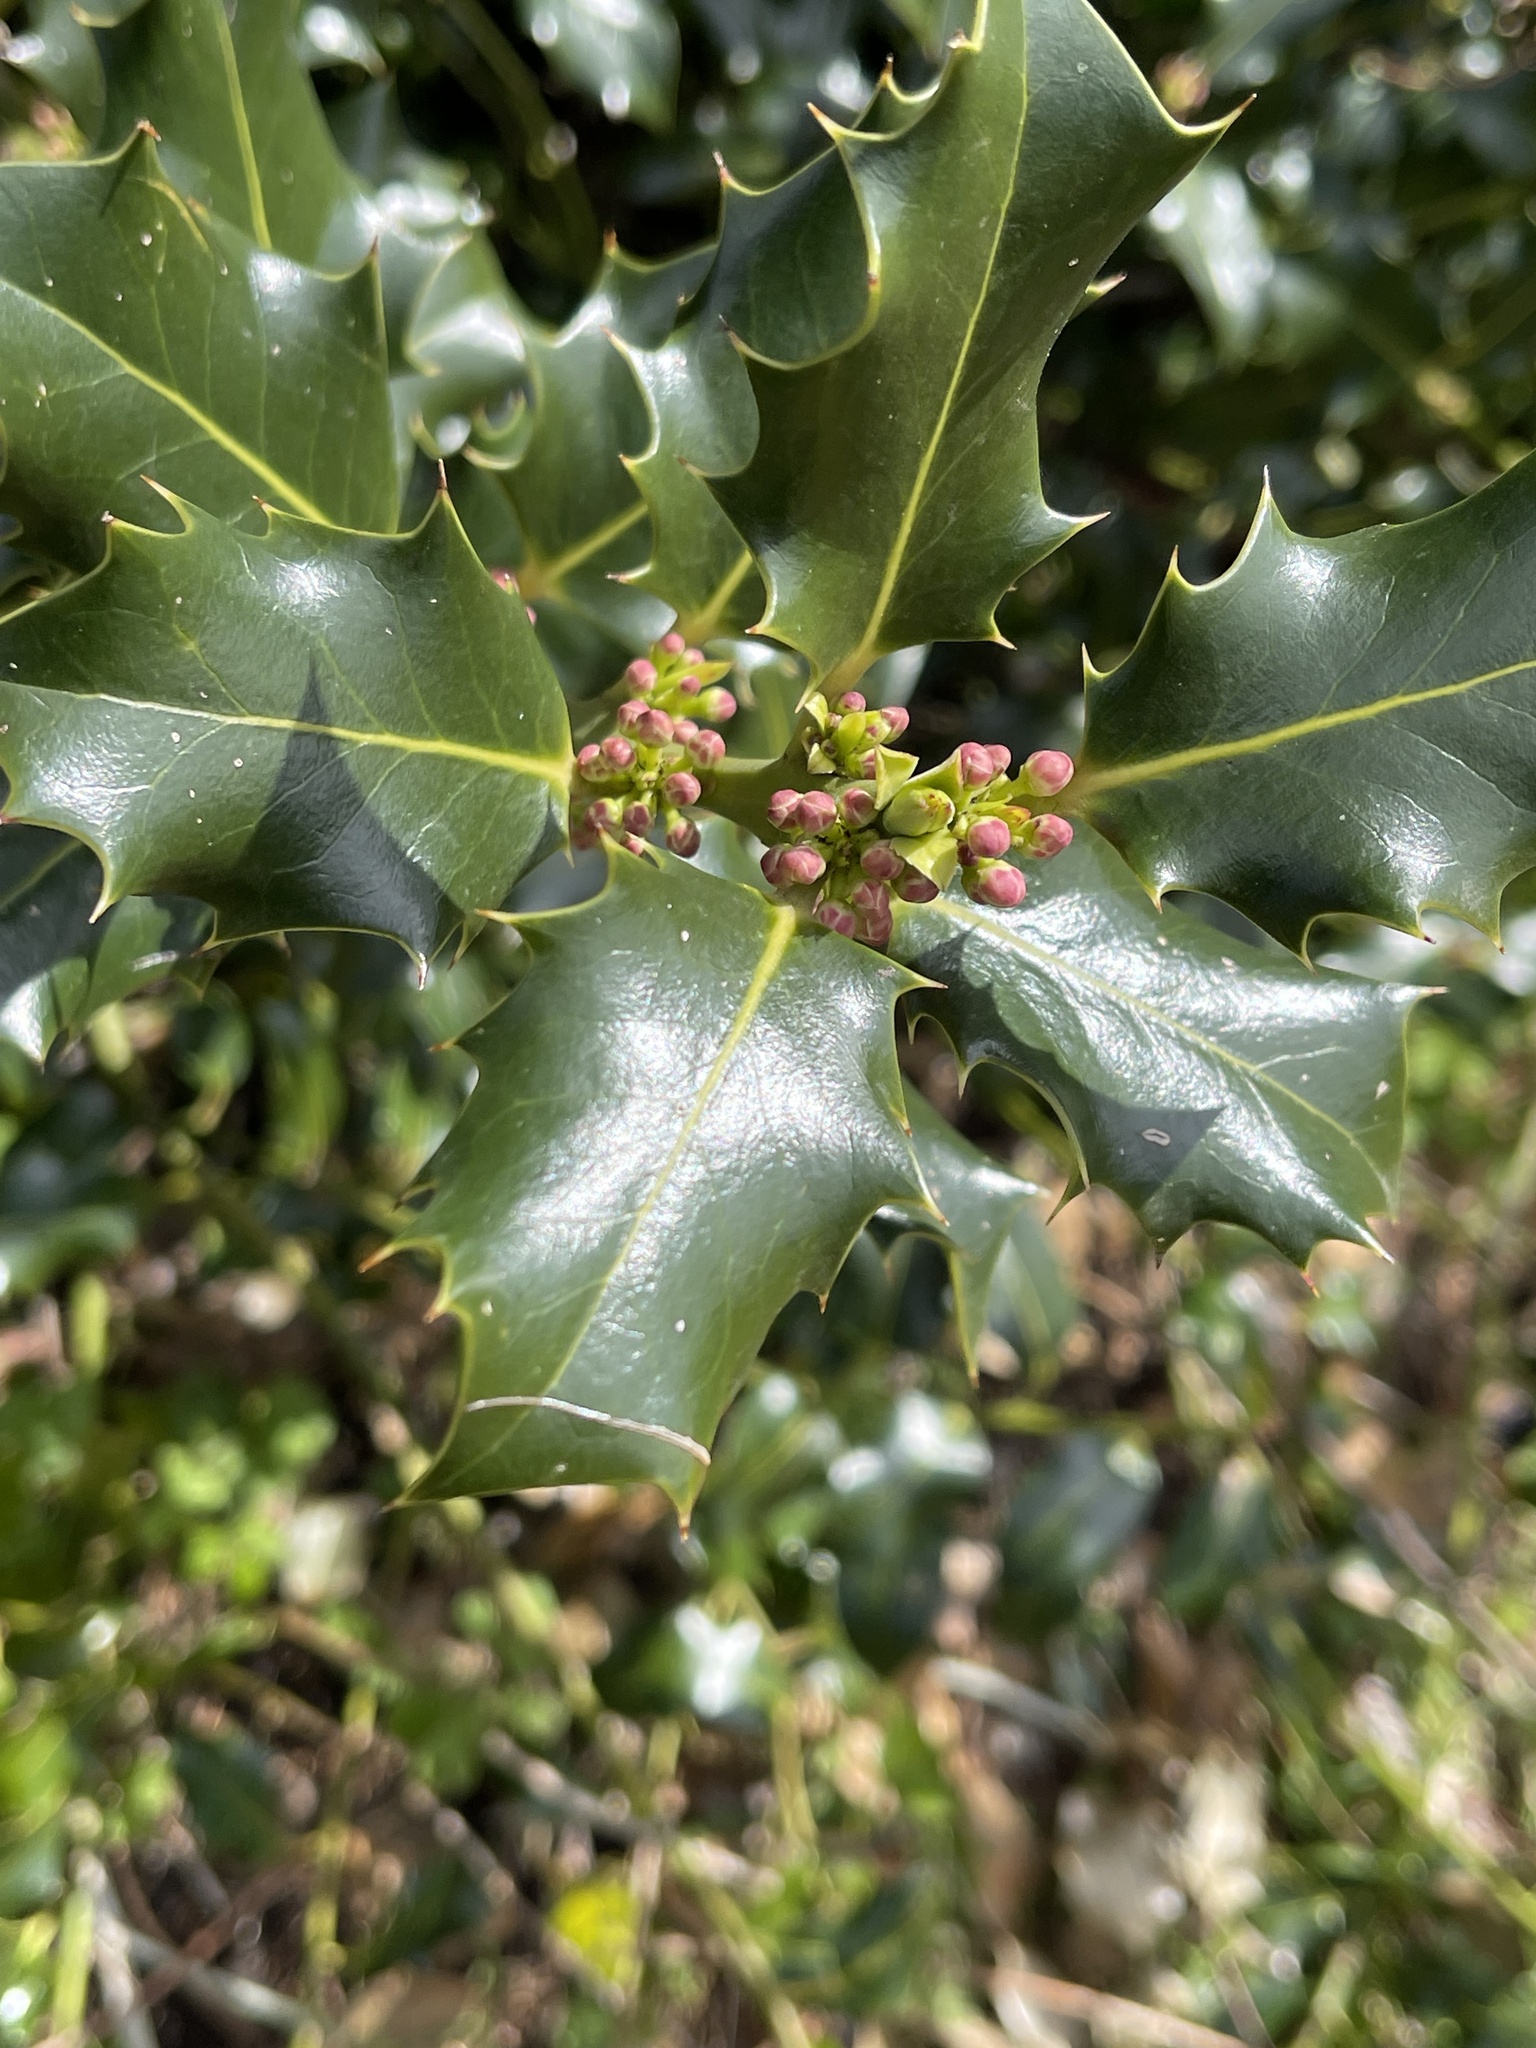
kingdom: Plantae
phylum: Tracheophyta
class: Magnoliopsida
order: Aquifoliales
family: Aquifoliaceae
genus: Ilex
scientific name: Ilex aquifolium
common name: English holly
